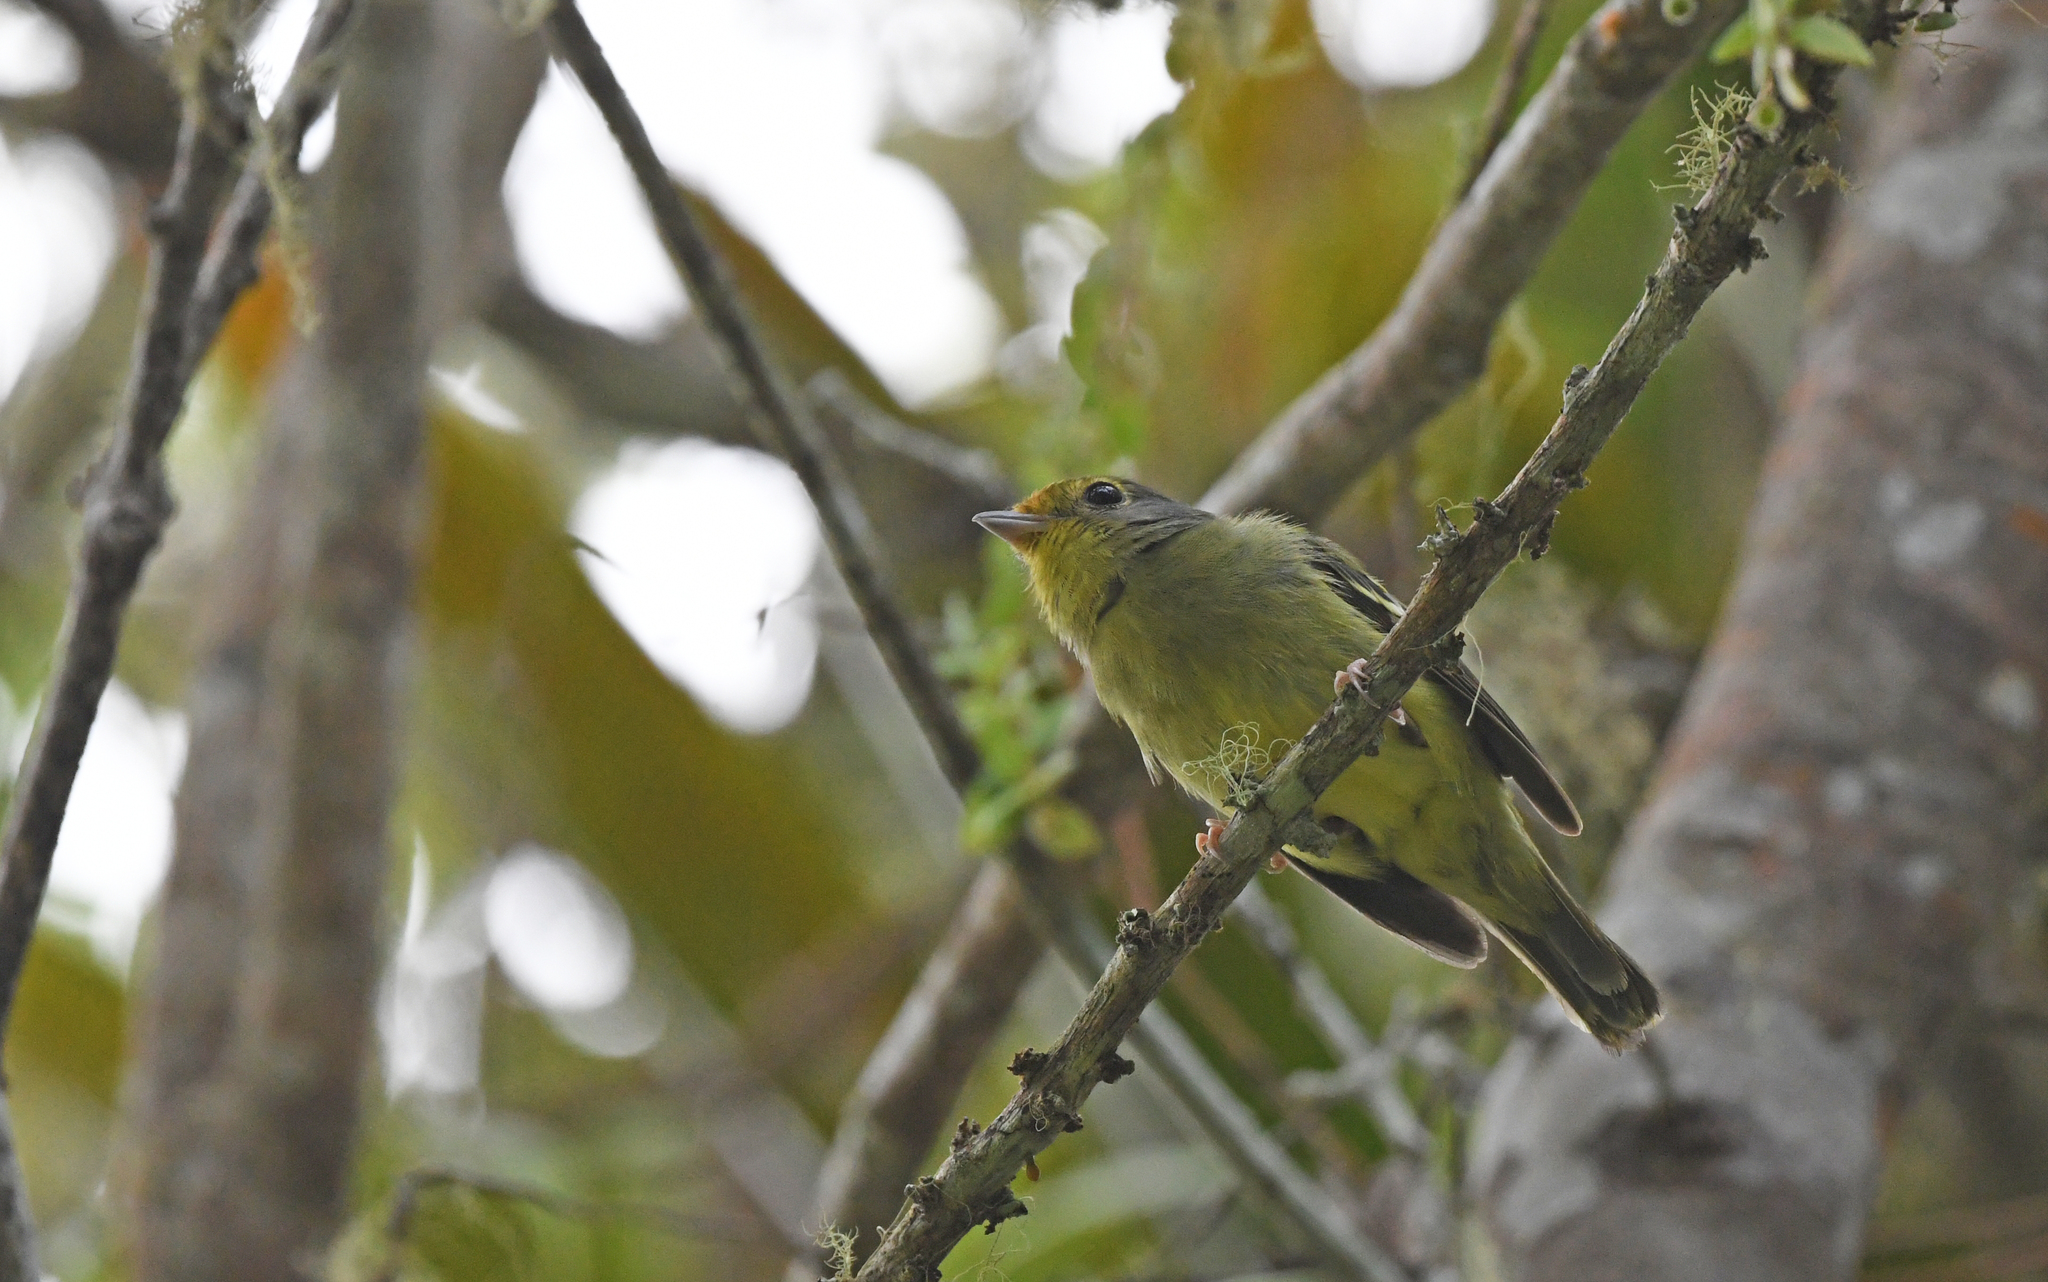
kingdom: Animalia
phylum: Chordata
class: Aves
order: Passeriformes
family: Cotingidae
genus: Piprites
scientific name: Piprites chloris
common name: Wing-barred piprites
